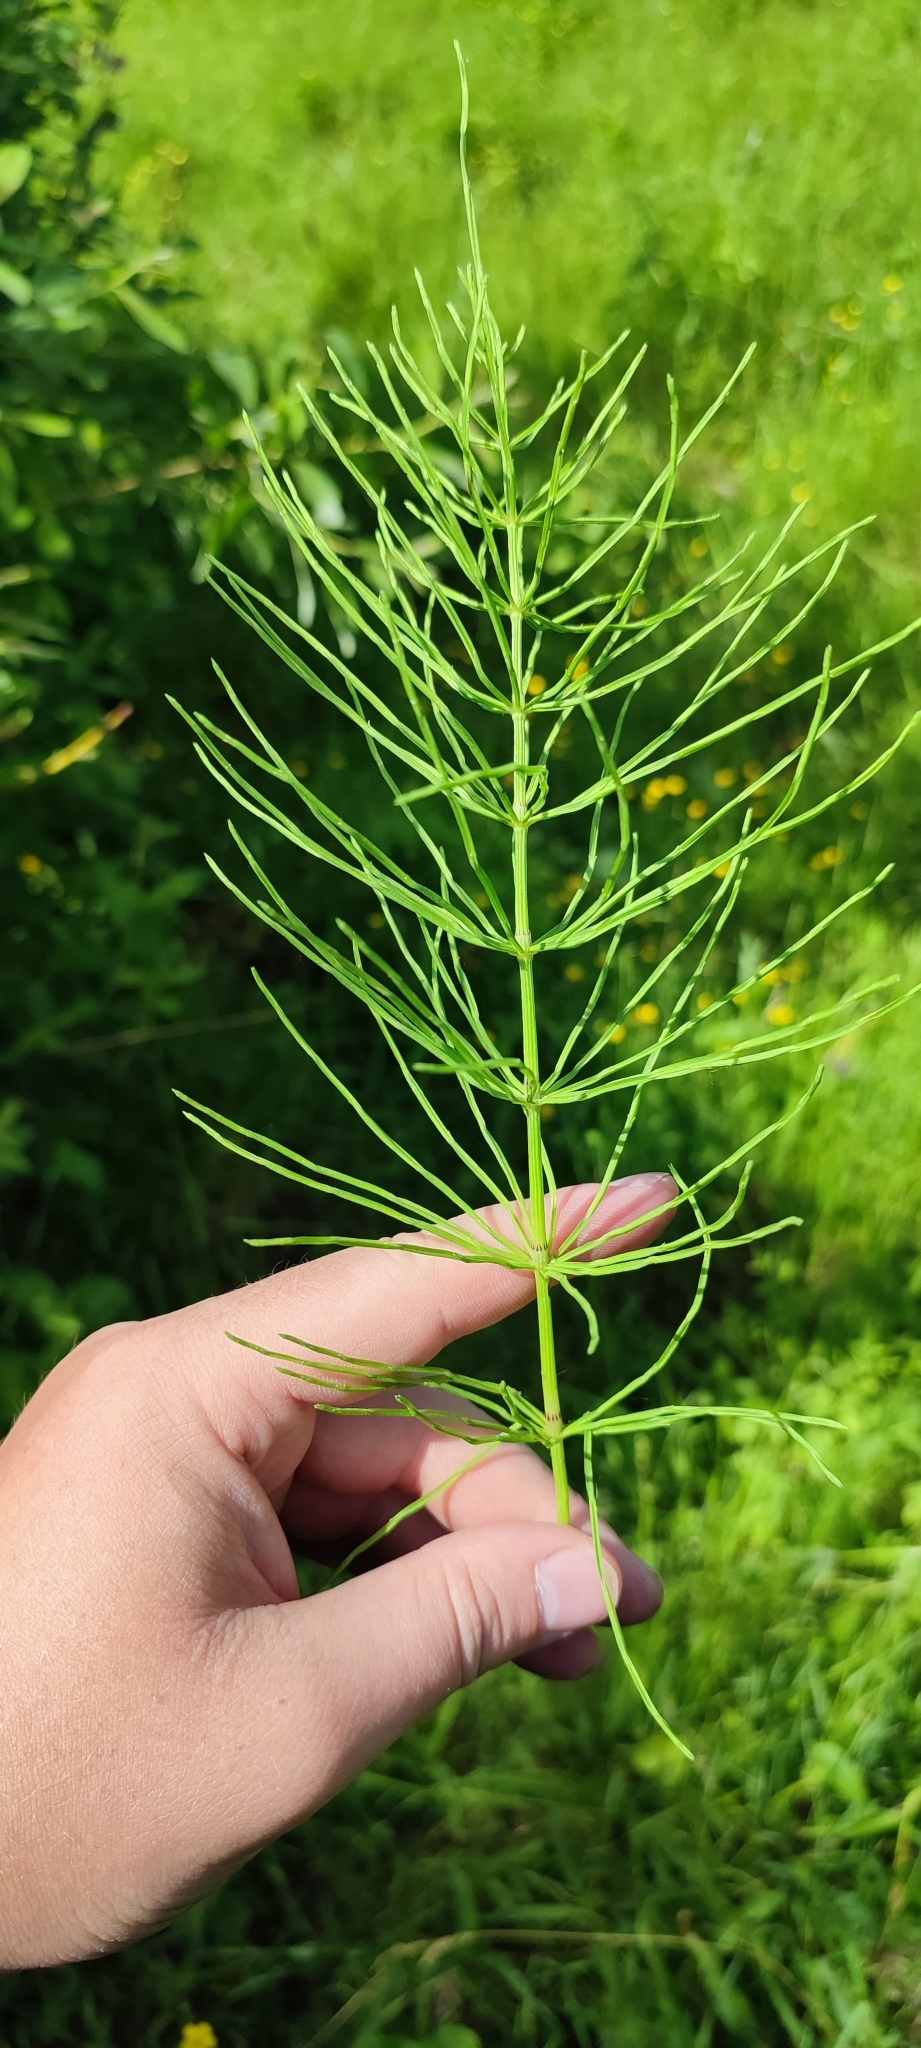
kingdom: Plantae
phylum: Tracheophyta
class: Polypodiopsida
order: Equisetales
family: Equisetaceae
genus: Equisetum
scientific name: Equisetum arvense
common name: Field horsetail
